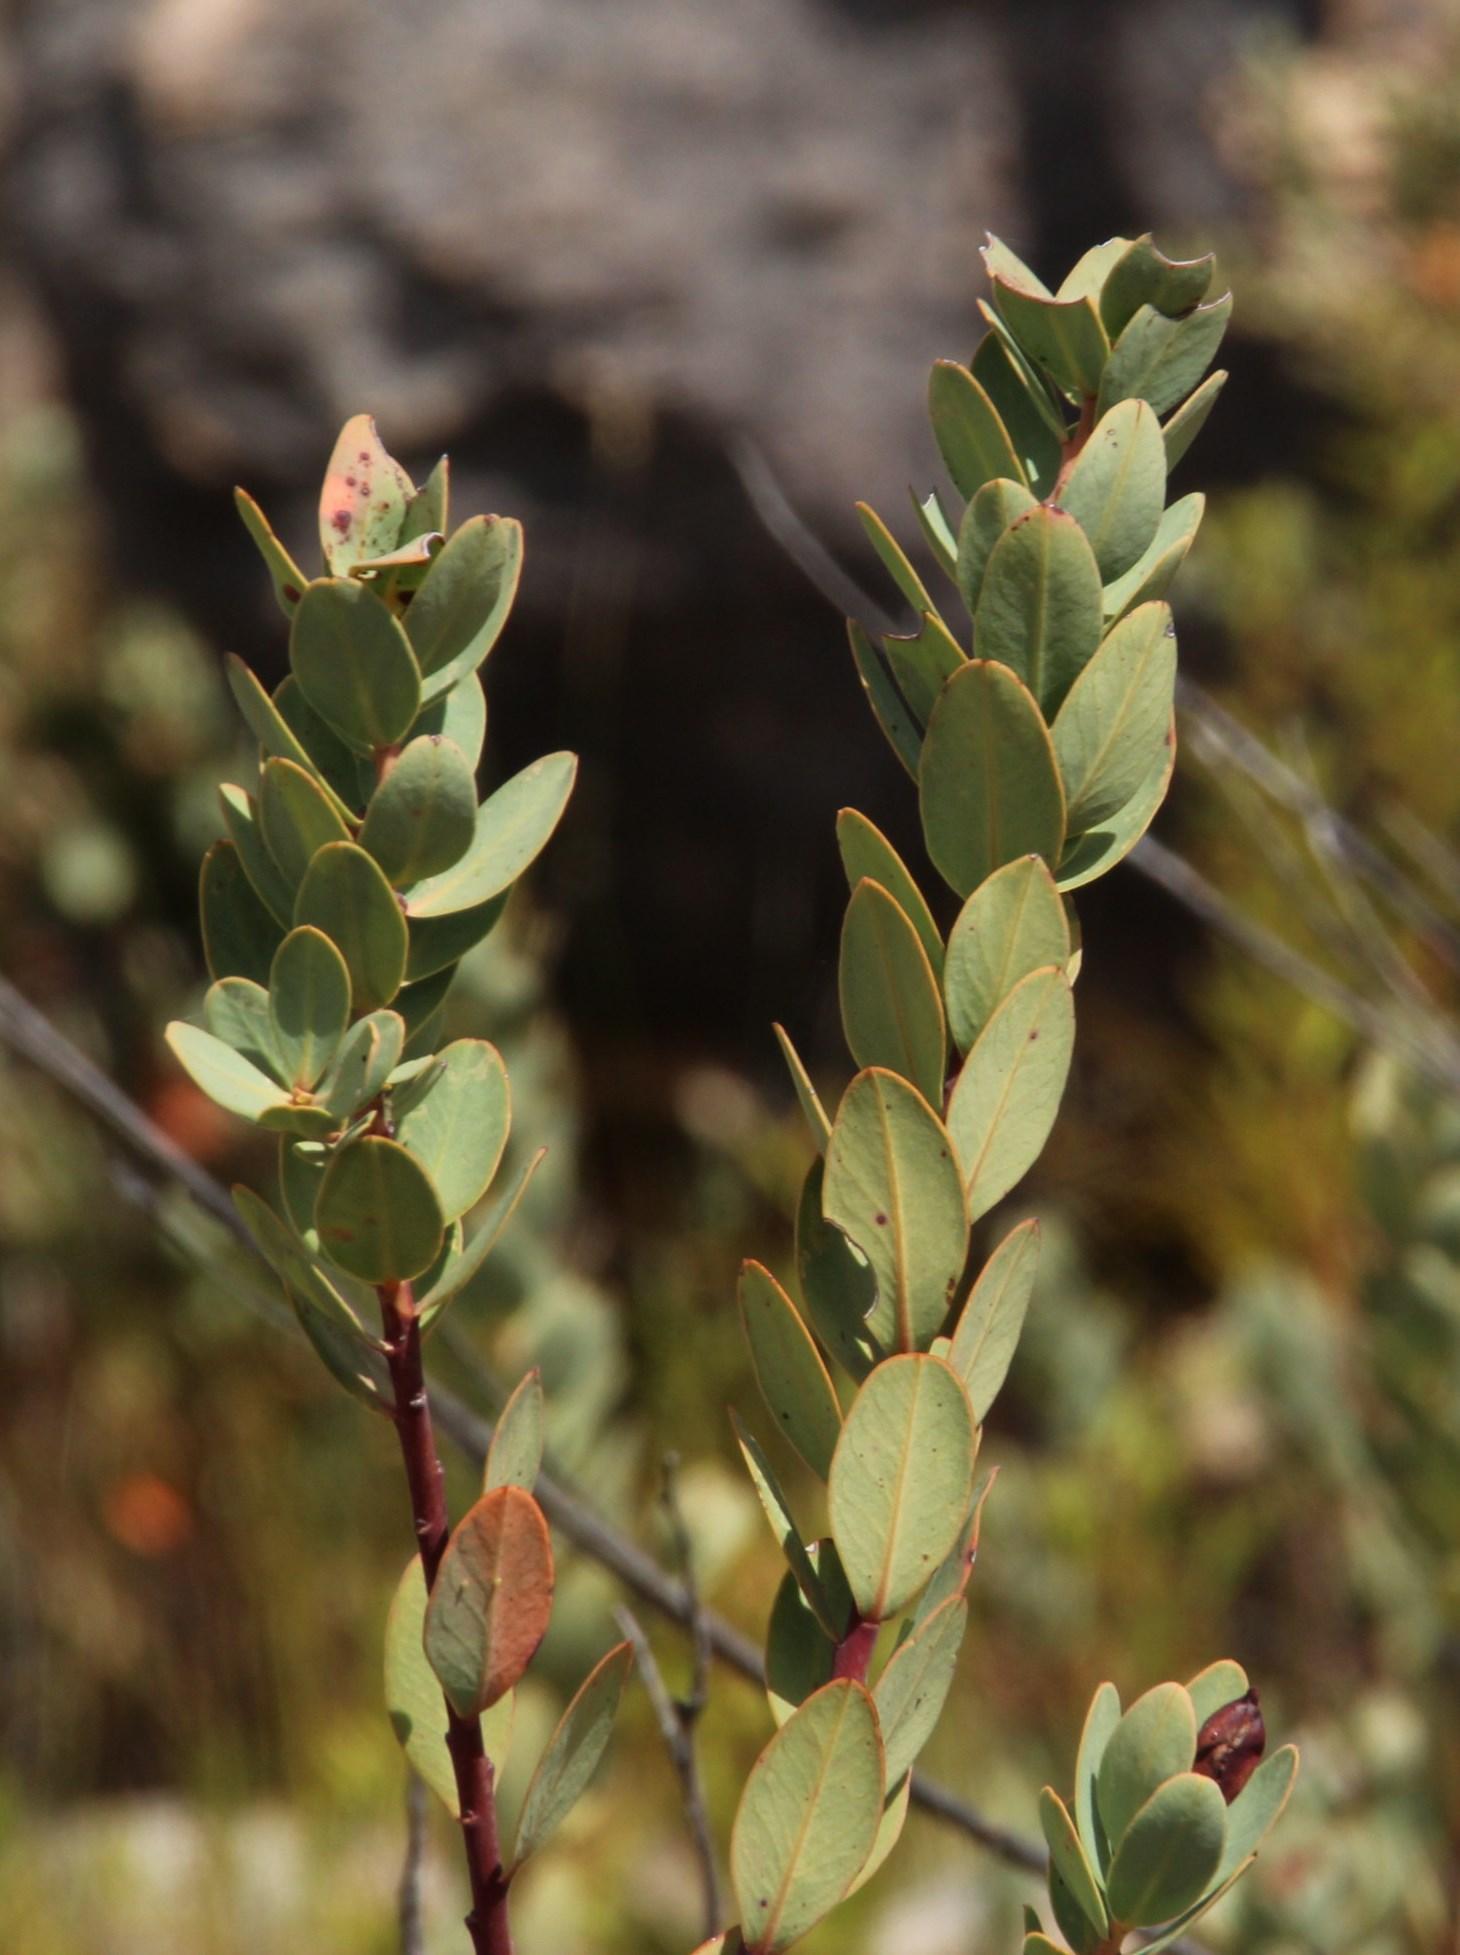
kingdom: Plantae
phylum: Tracheophyta
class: Magnoliopsida
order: Santalales
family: Santalaceae
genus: Osyris
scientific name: Osyris compressa
